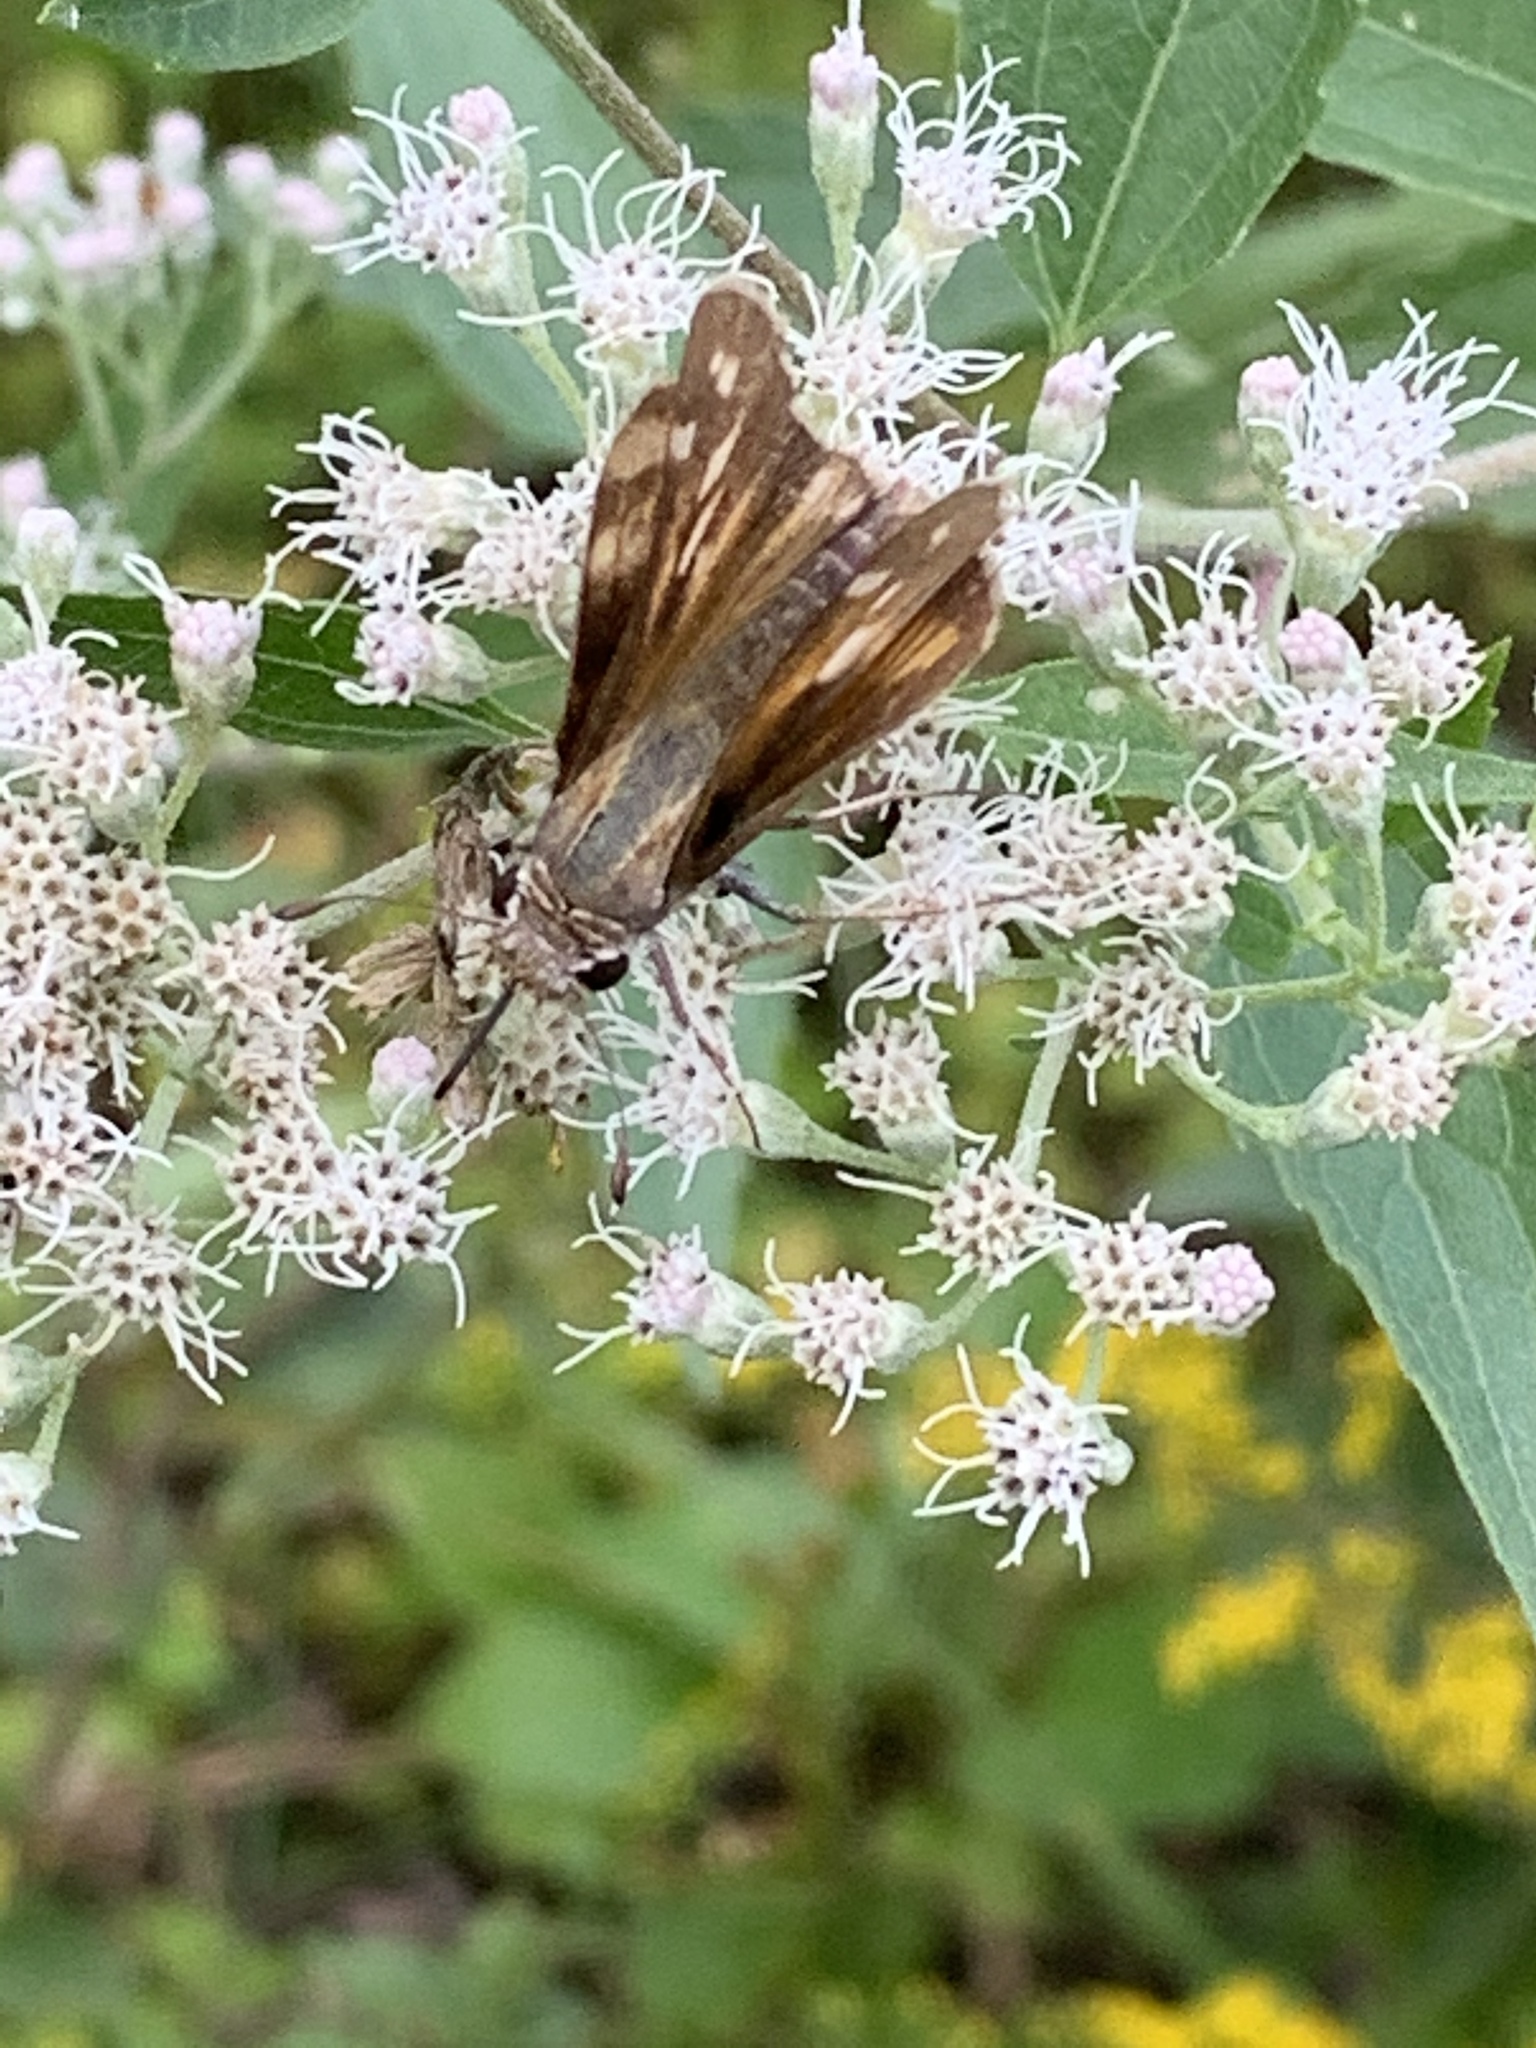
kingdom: Animalia
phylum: Arthropoda
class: Insecta
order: Lepidoptera
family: Hesperiidae
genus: Atalopedes
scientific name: Atalopedes
